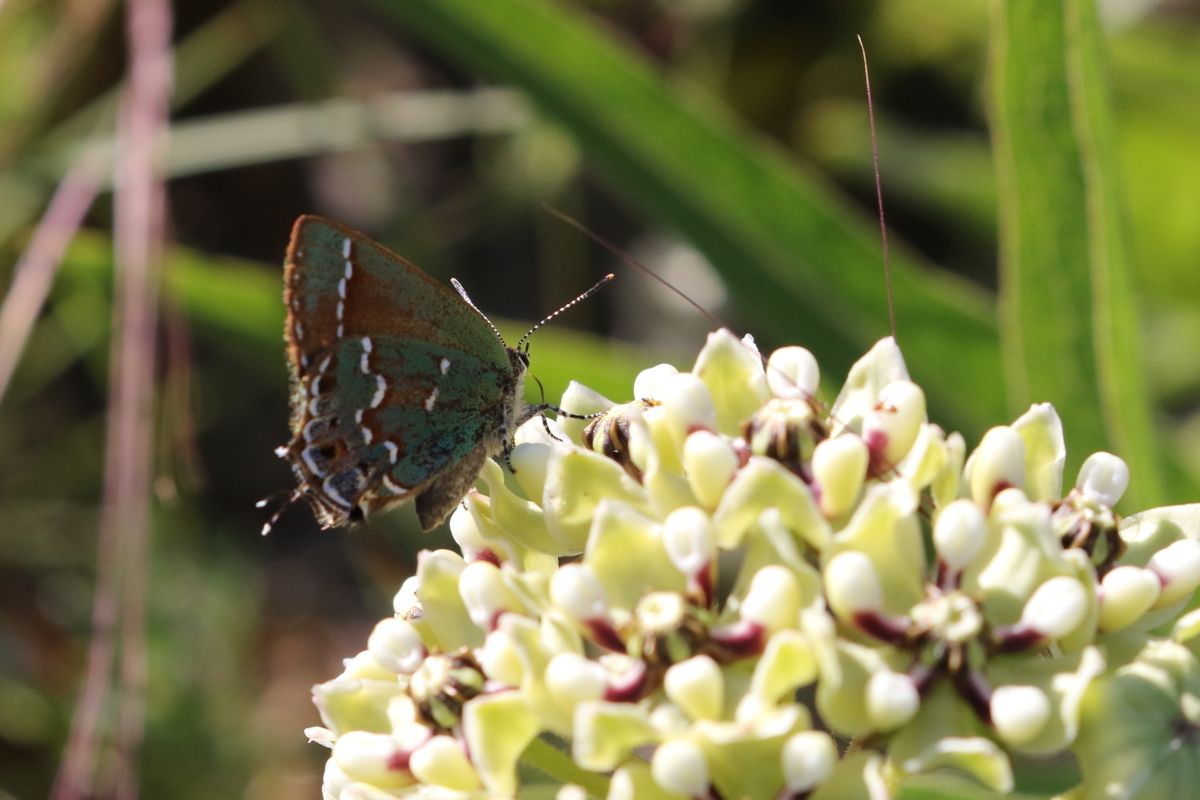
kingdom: Animalia
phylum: Arthropoda
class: Insecta
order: Lepidoptera
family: Lycaenidae
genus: Mitoura
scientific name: Mitoura gryneus
